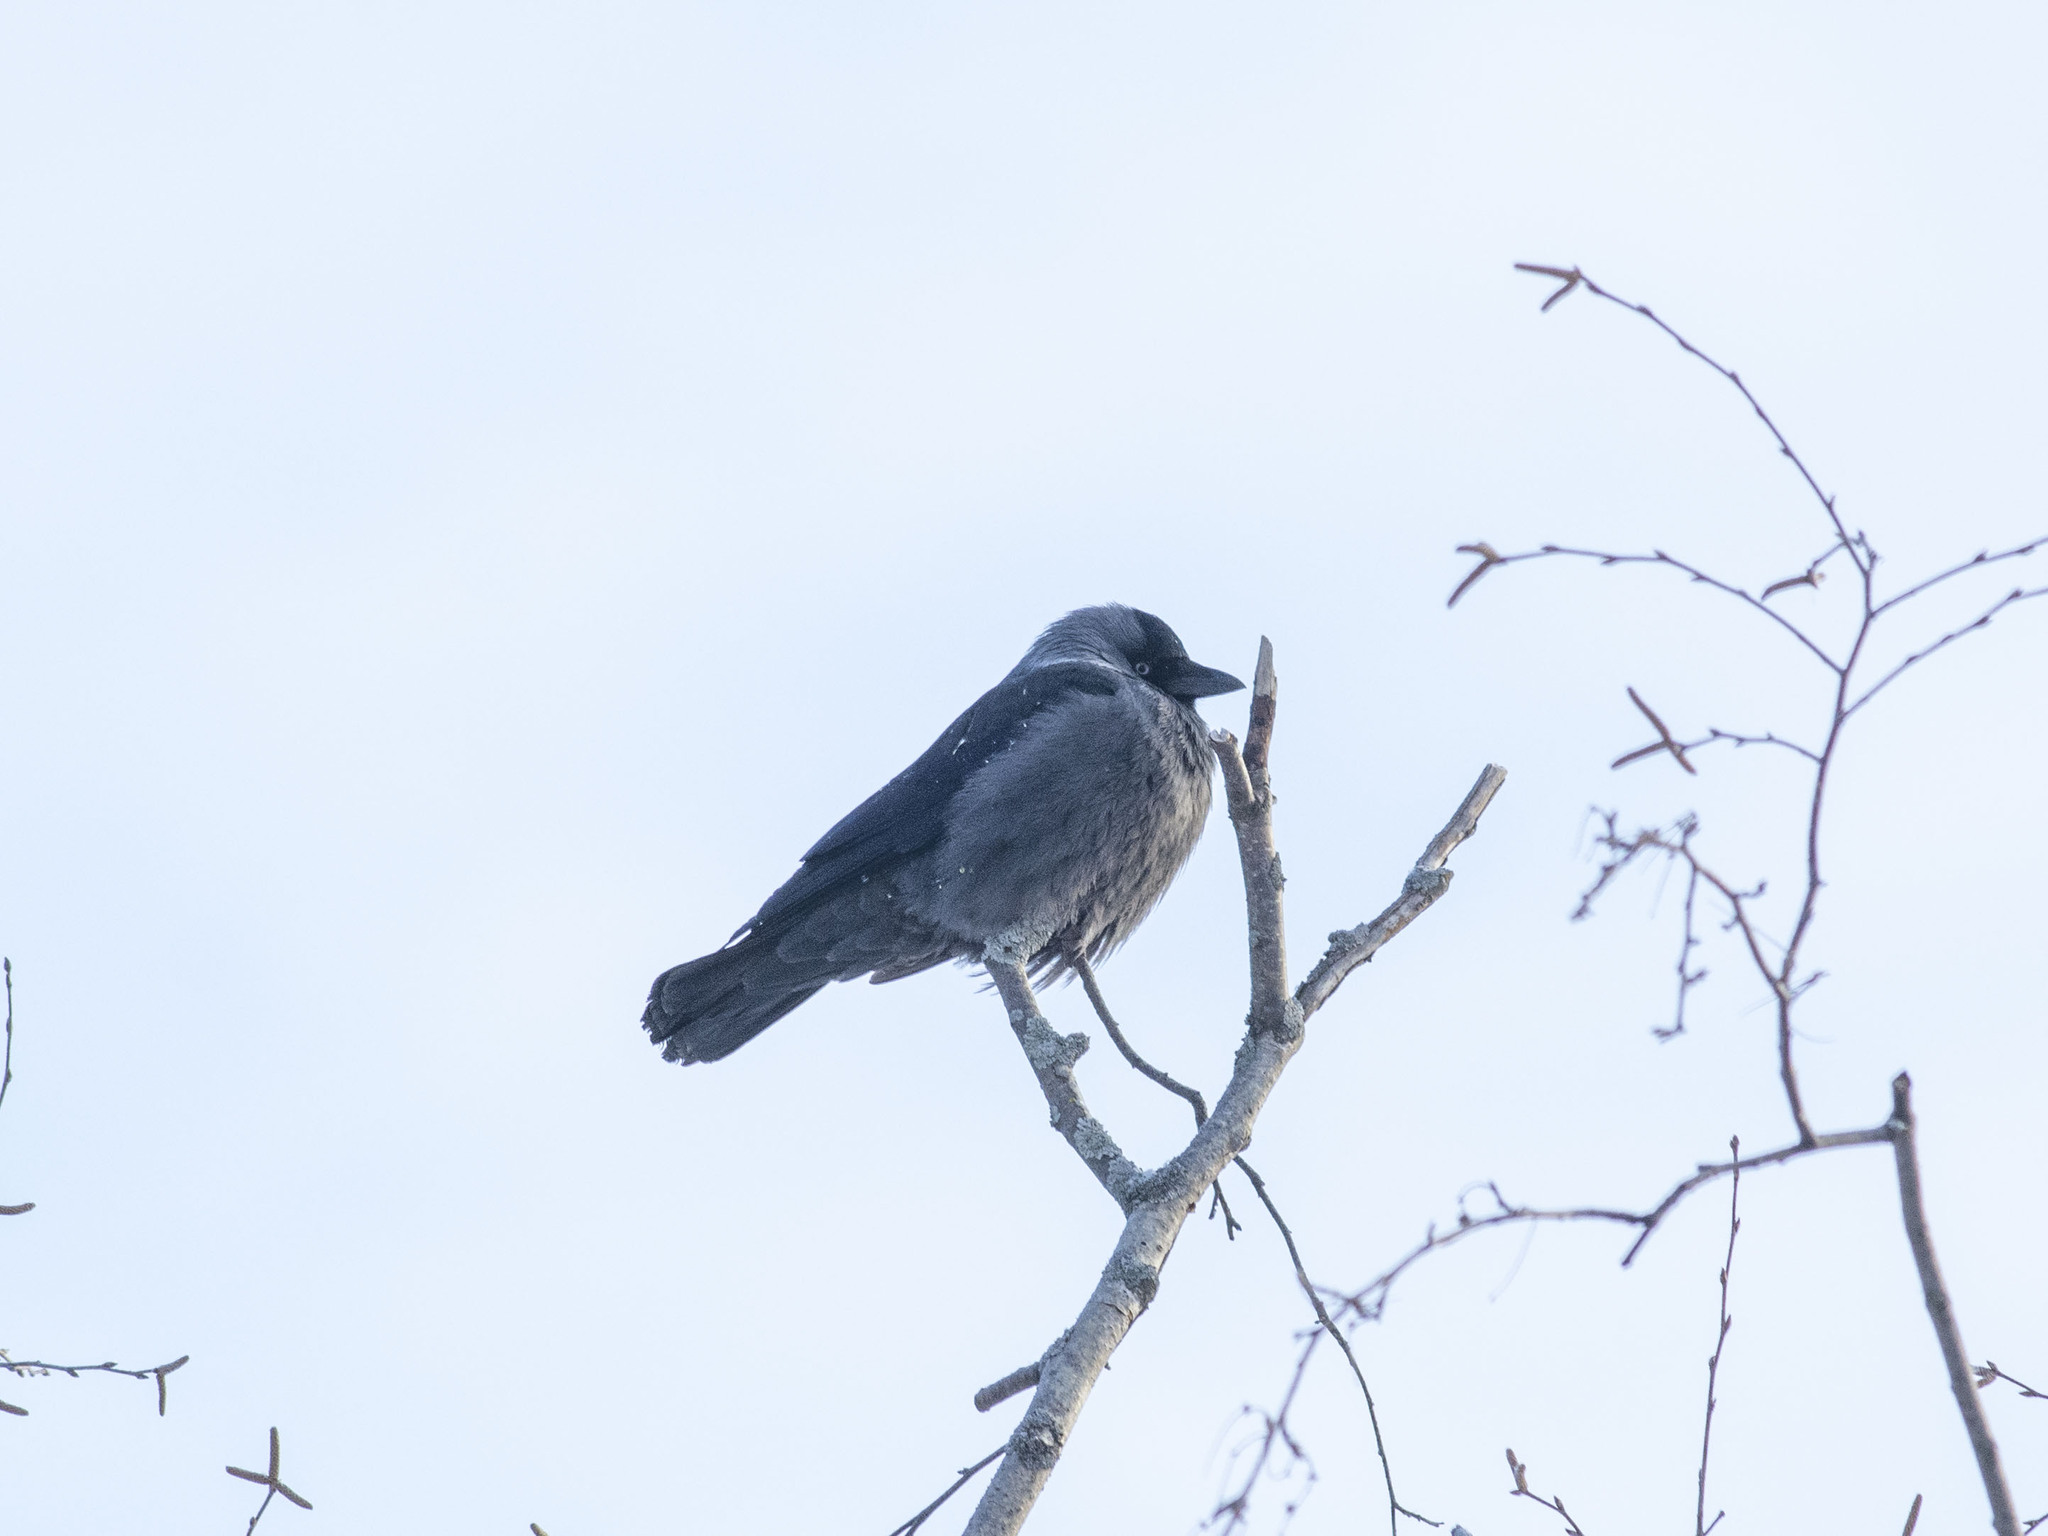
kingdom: Animalia
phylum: Chordata
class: Aves
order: Passeriformes
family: Corvidae
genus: Coloeus
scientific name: Coloeus monedula
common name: Western jackdaw
